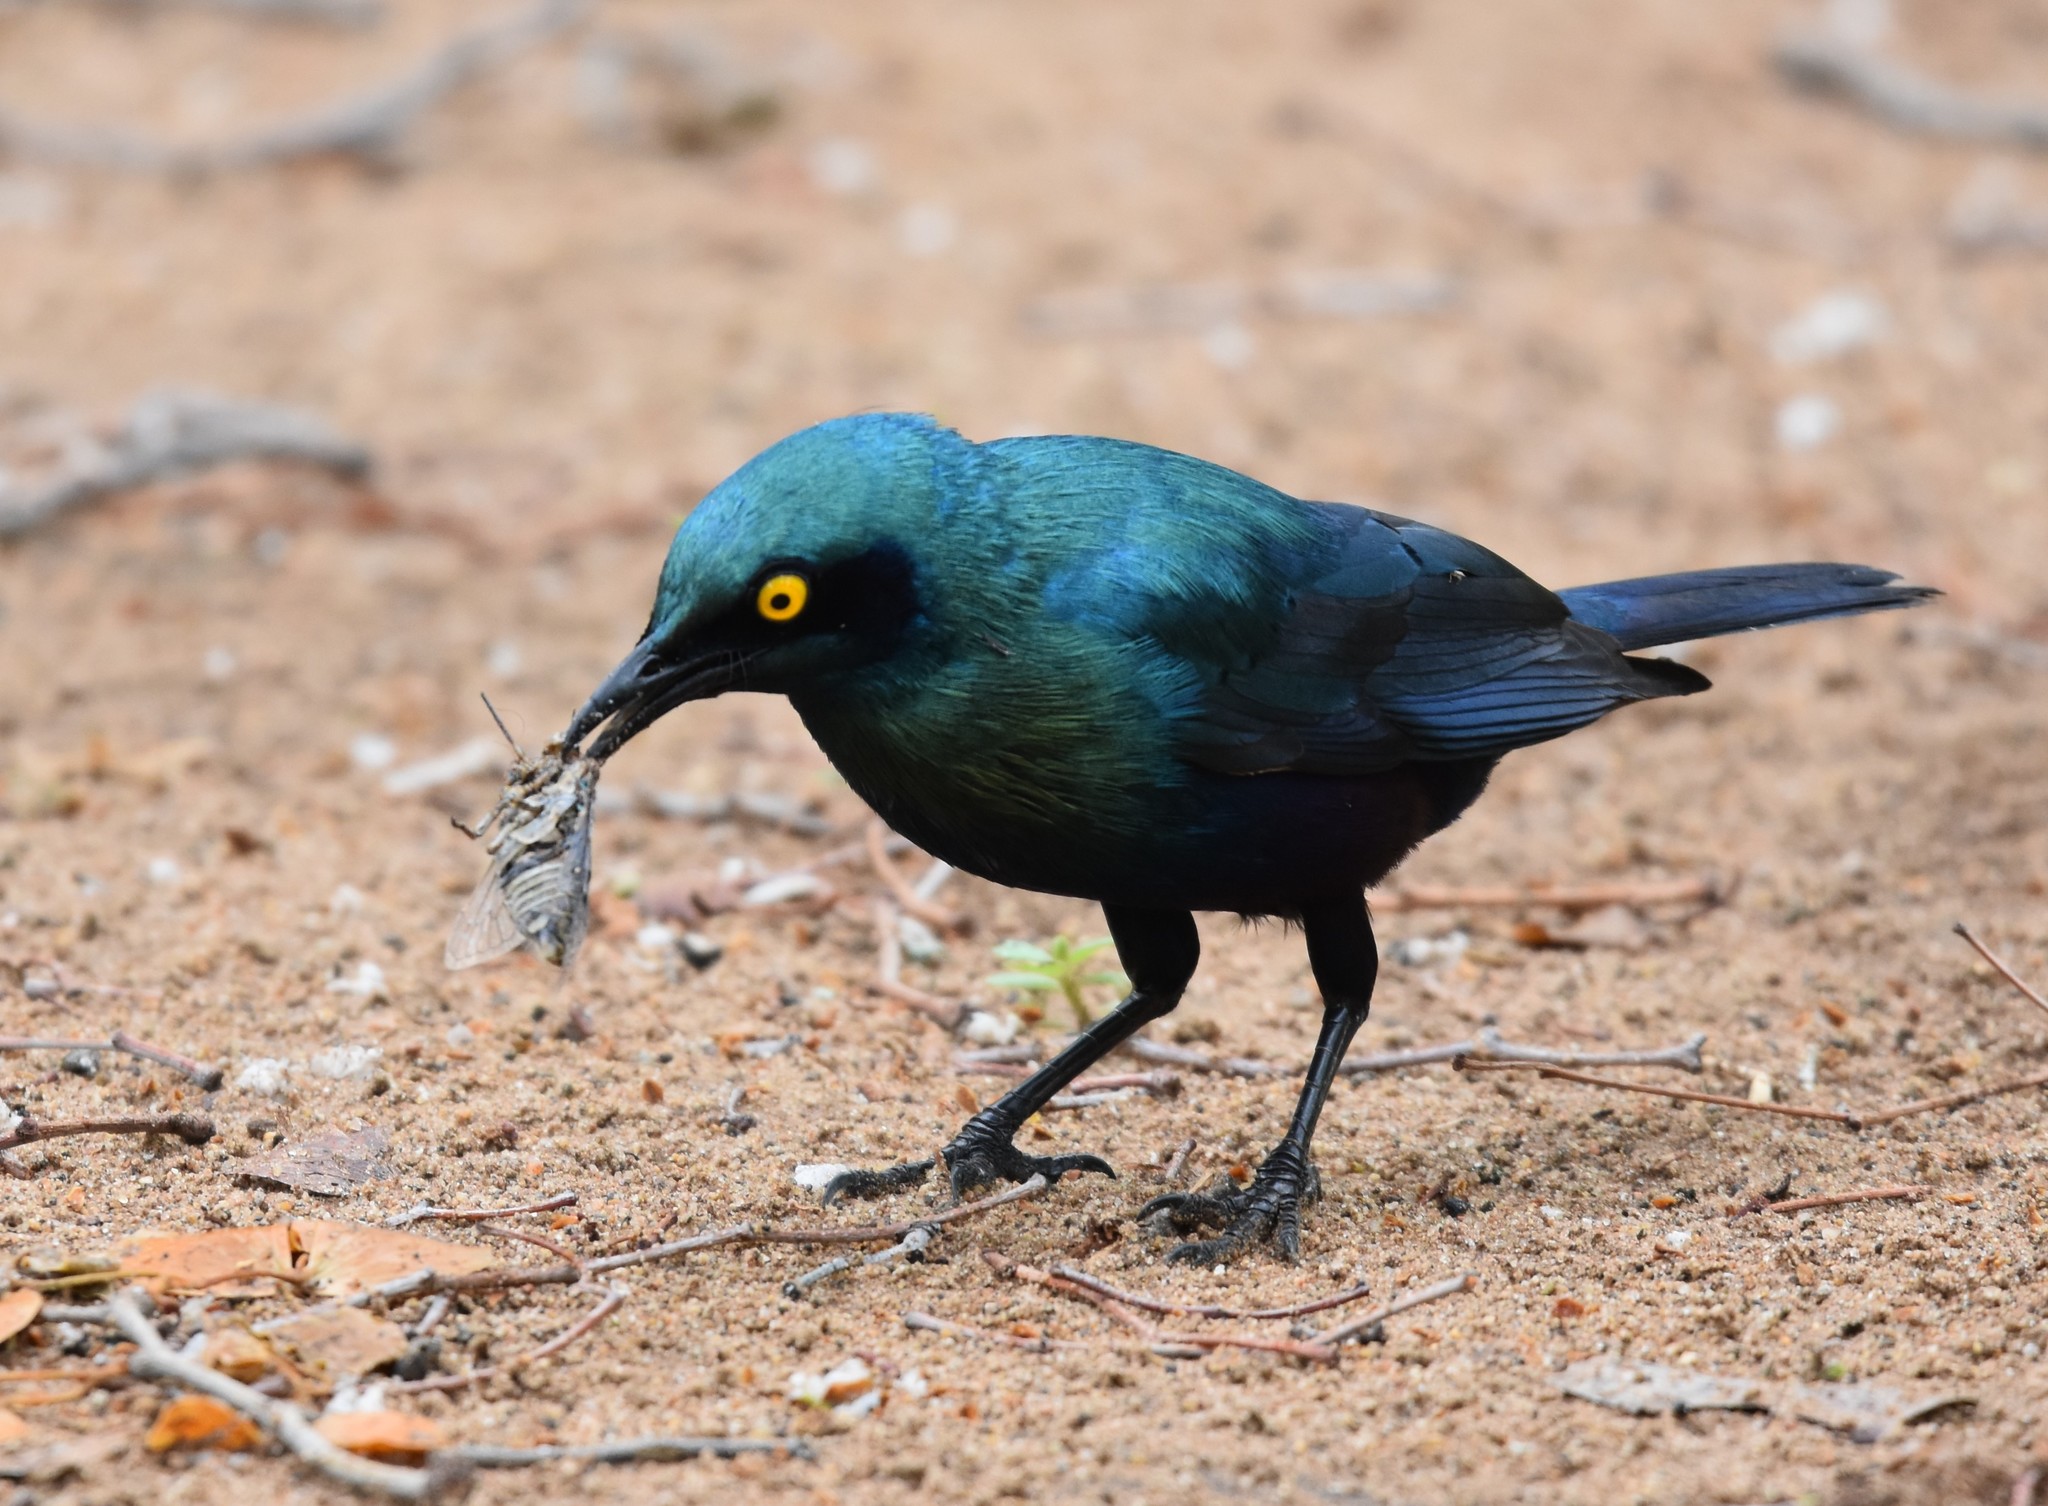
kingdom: Animalia
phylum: Chordata
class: Aves
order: Passeriformes
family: Sturnidae
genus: Lamprotornis
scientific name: Lamprotornis chalybaeus
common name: Greater blue-eared starling
